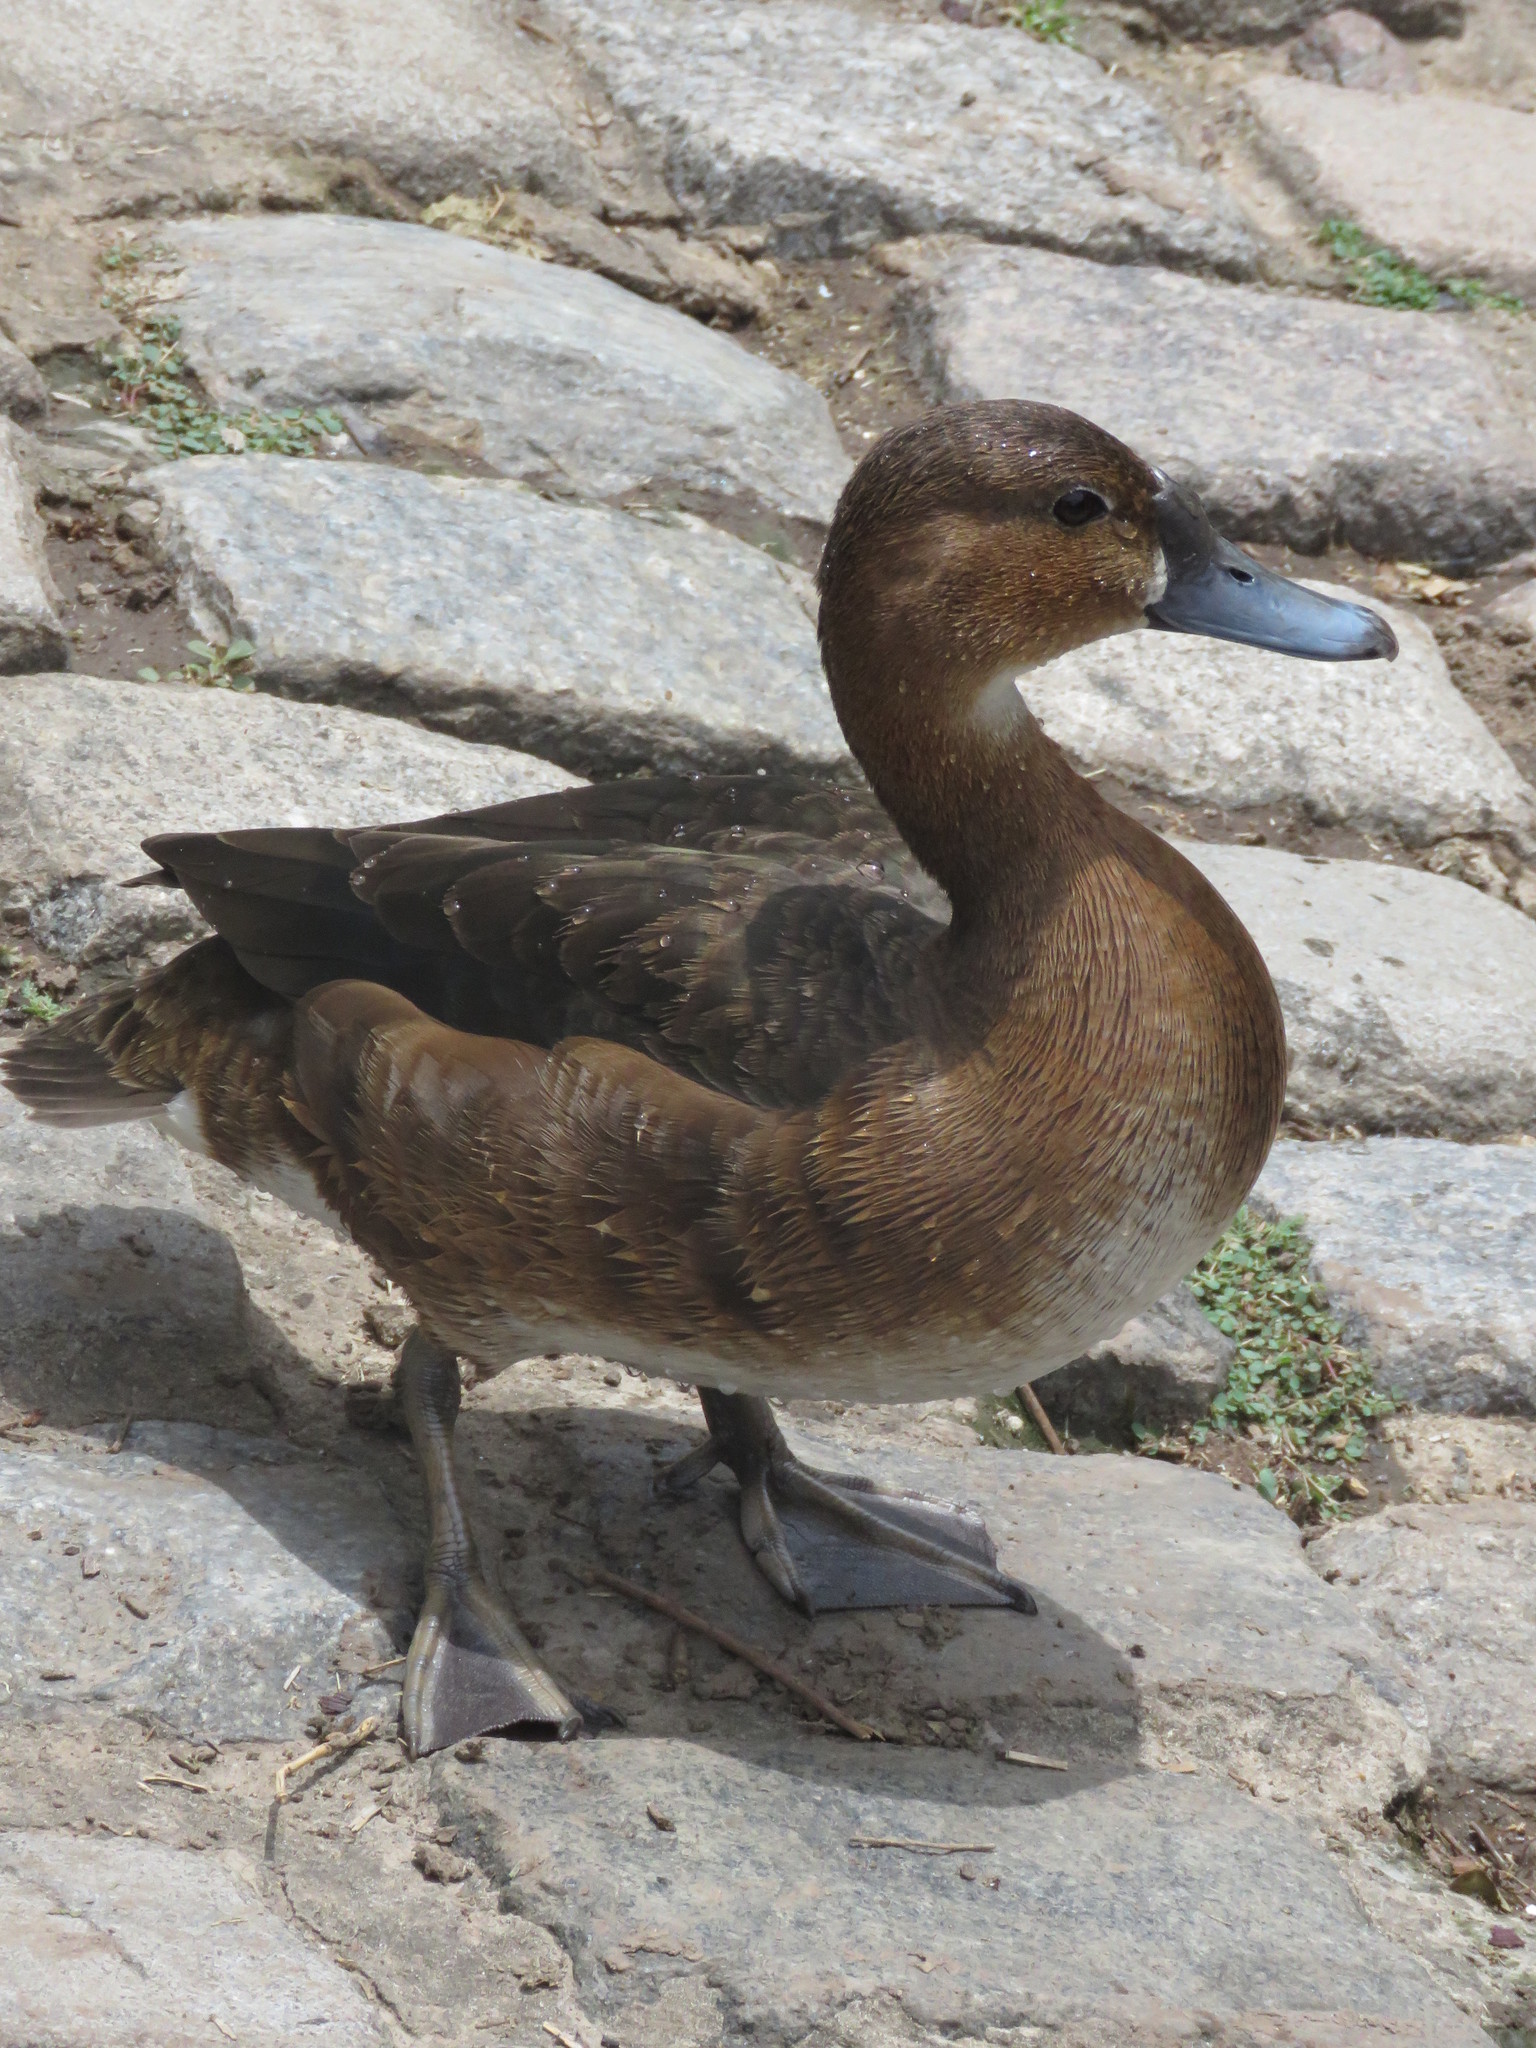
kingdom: Animalia
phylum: Chordata
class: Aves
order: Anseriformes
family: Anatidae
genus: Netta
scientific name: Netta peposaca
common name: Rosy-billed pochard
